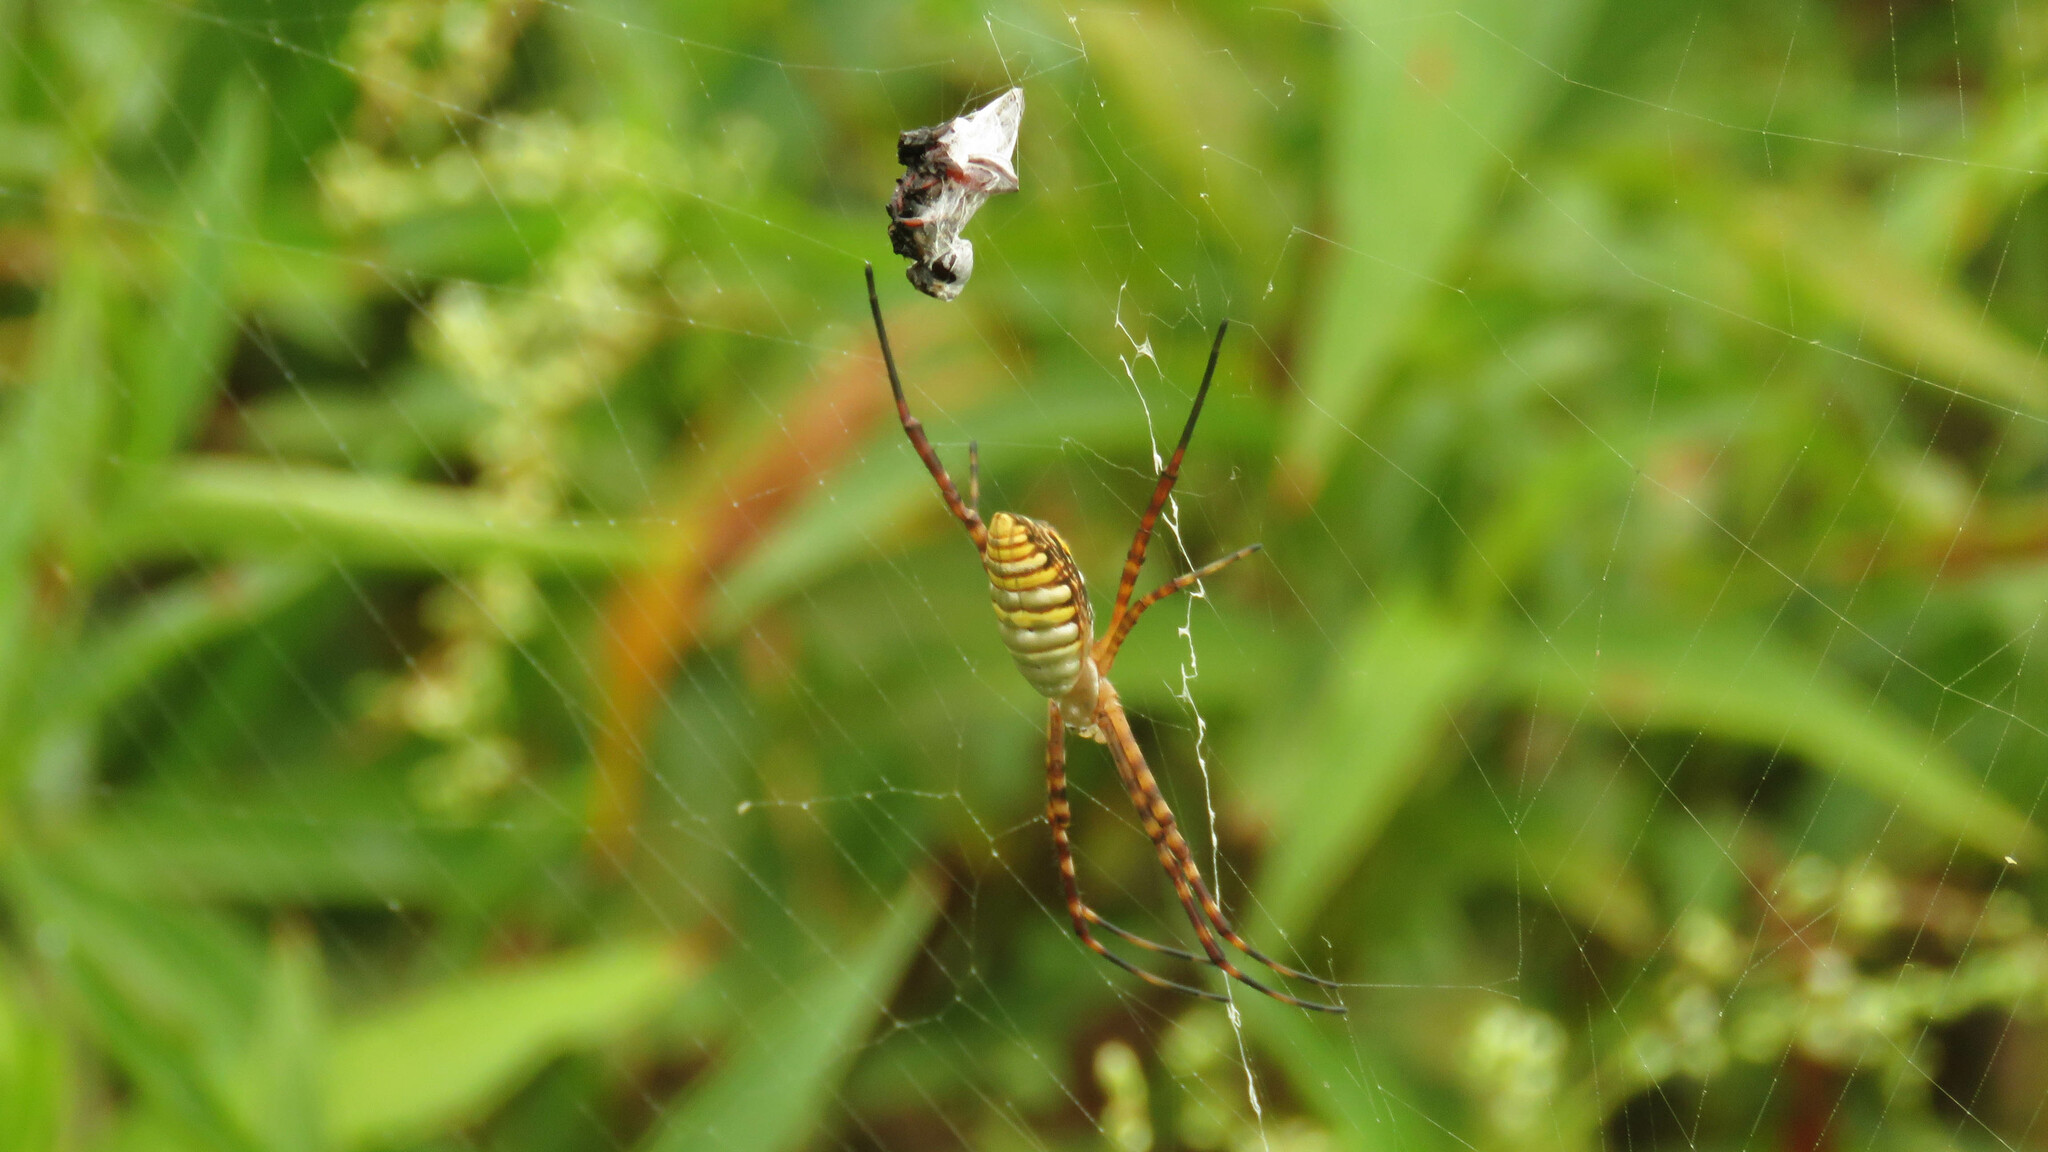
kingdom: Animalia
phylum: Arthropoda
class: Arachnida
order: Araneae
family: Araneidae
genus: Argiope
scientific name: Argiope trifasciata
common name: Banded garden spider
